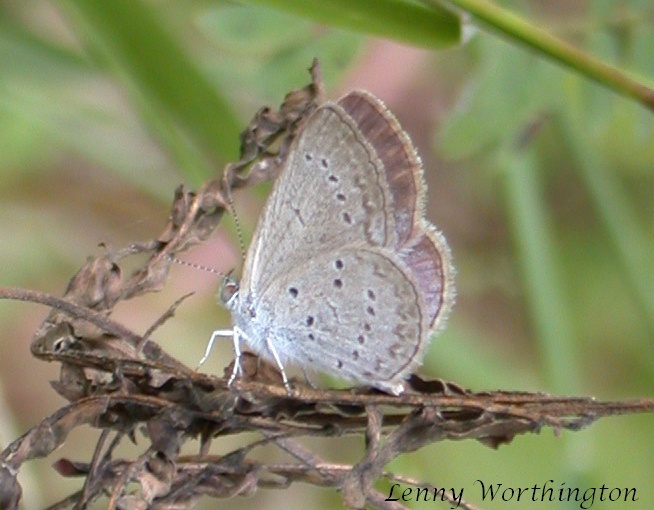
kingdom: Animalia
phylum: Arthropoda
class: Insecta
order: Lepidoptera
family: Lycaenidae
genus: Zizina
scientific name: Zizina otis
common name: Lesser grass blue
